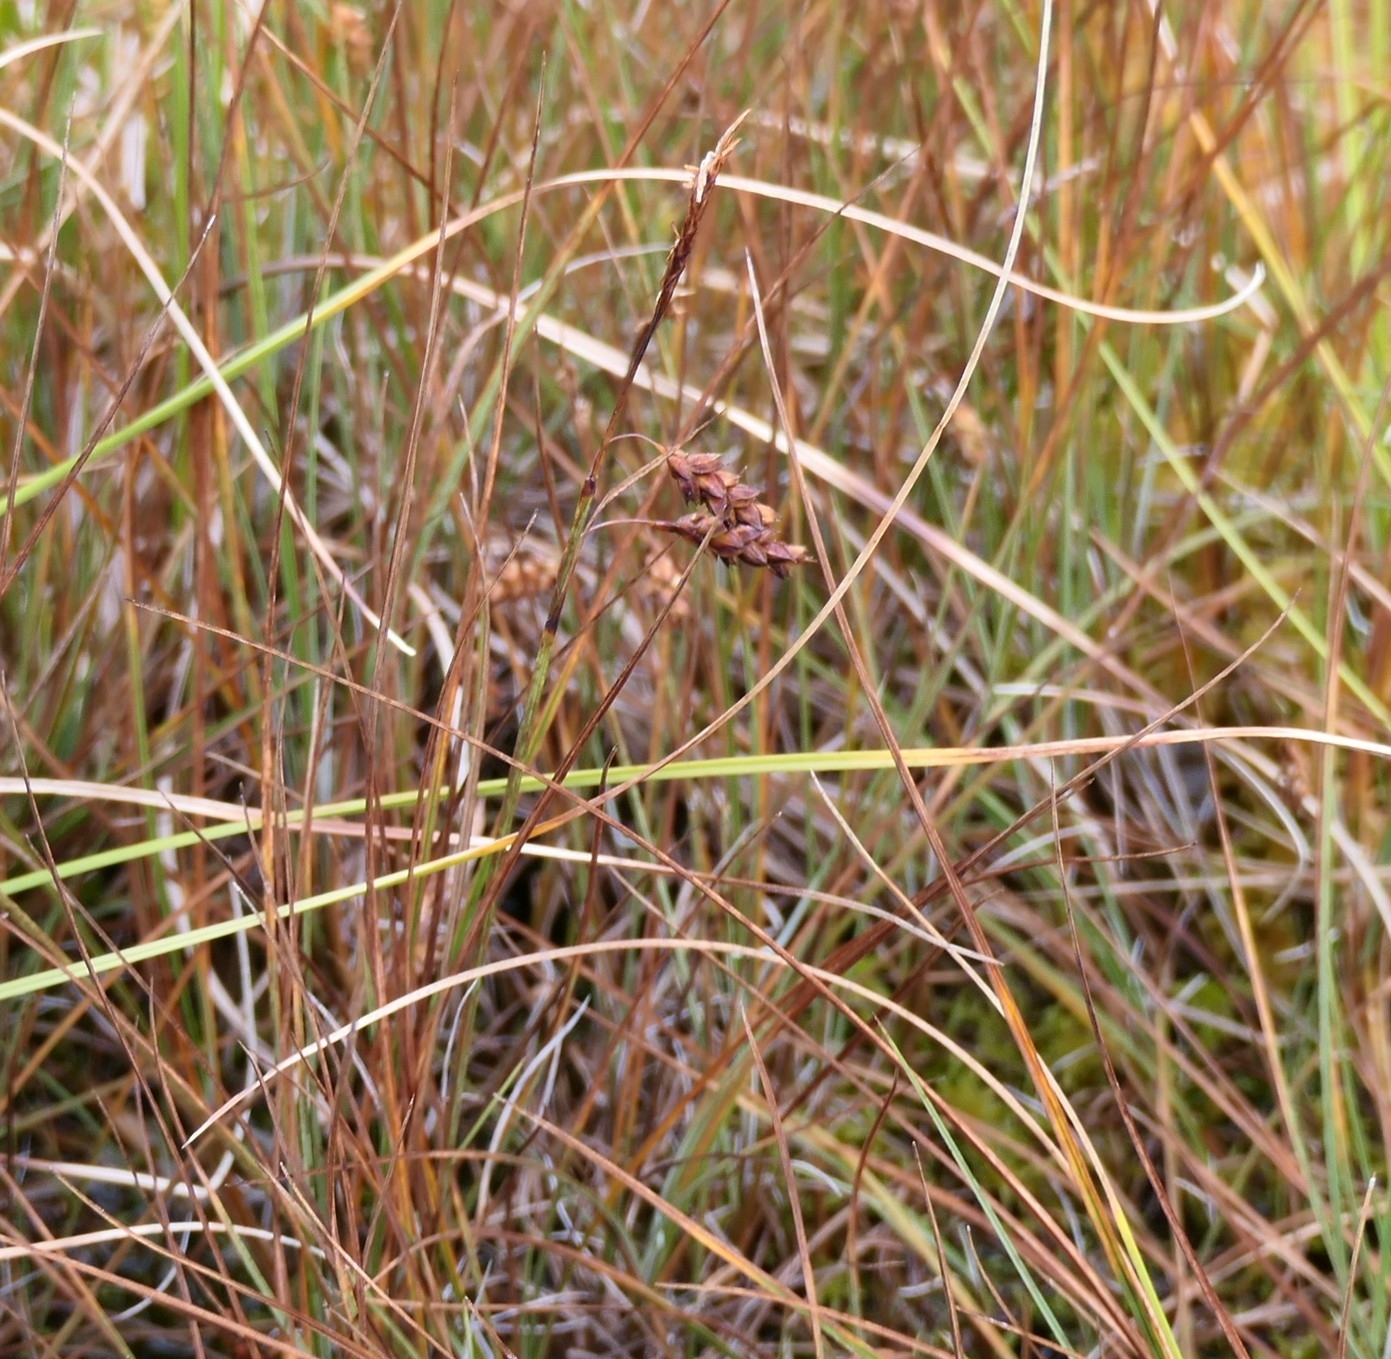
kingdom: Plantae
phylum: Tracheophyta
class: Liliopsida
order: Poales
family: Cyperaceae
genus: Carex
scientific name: Carex limosa
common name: Bog sedge
